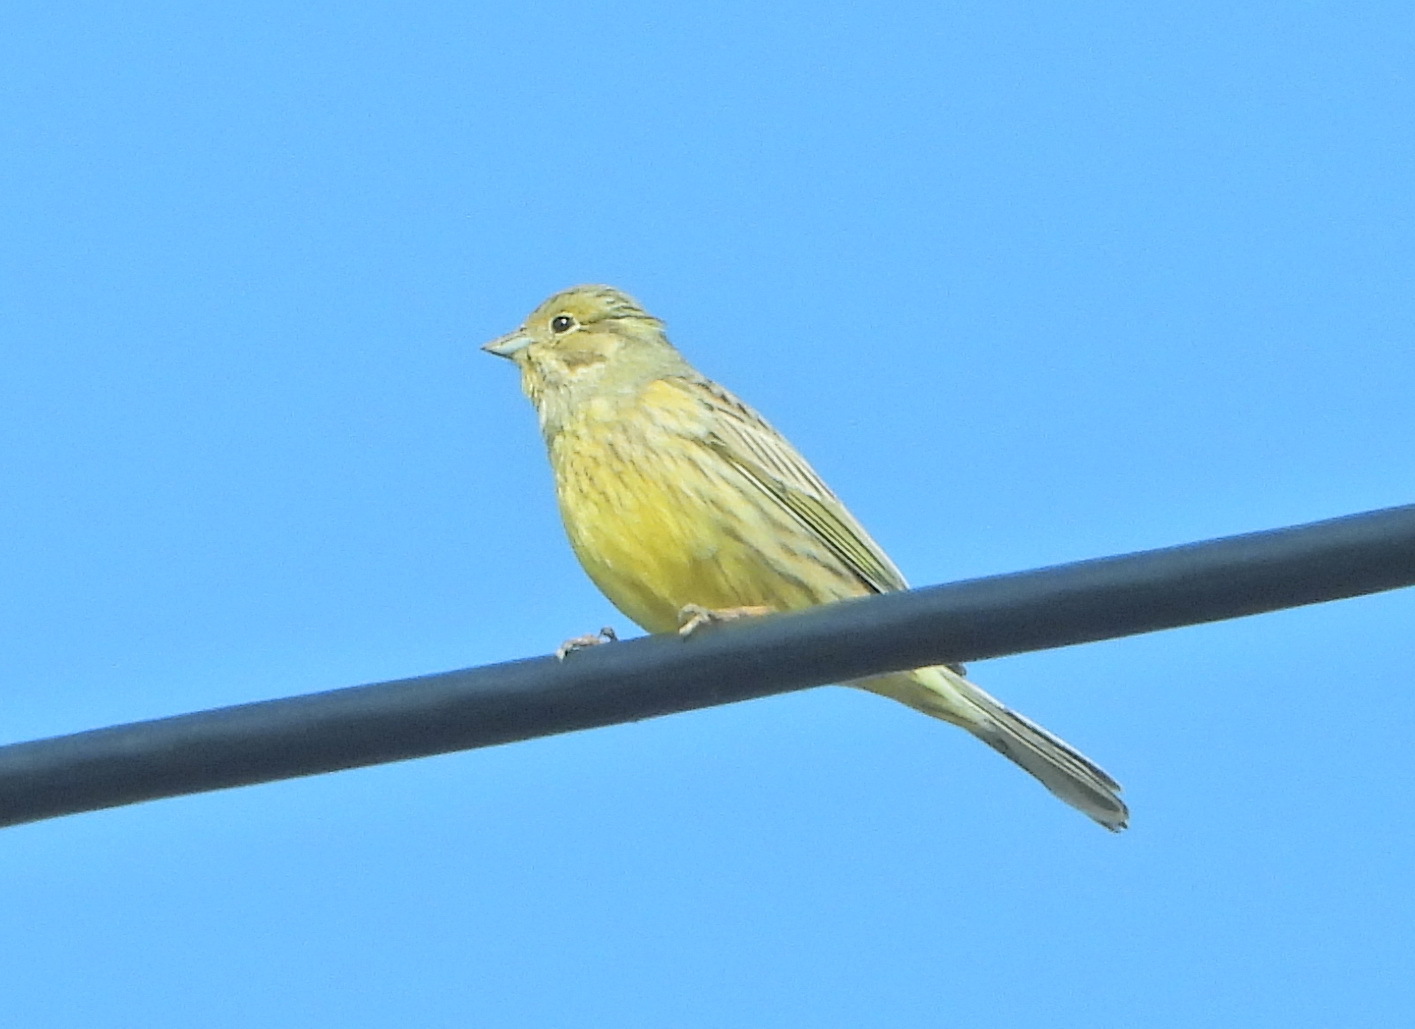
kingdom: Animalia
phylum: Chordata
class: Aves
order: Passeriformes
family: Emberizidae
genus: Emberiza
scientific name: Emberiza citrinella
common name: Yellowhammer
